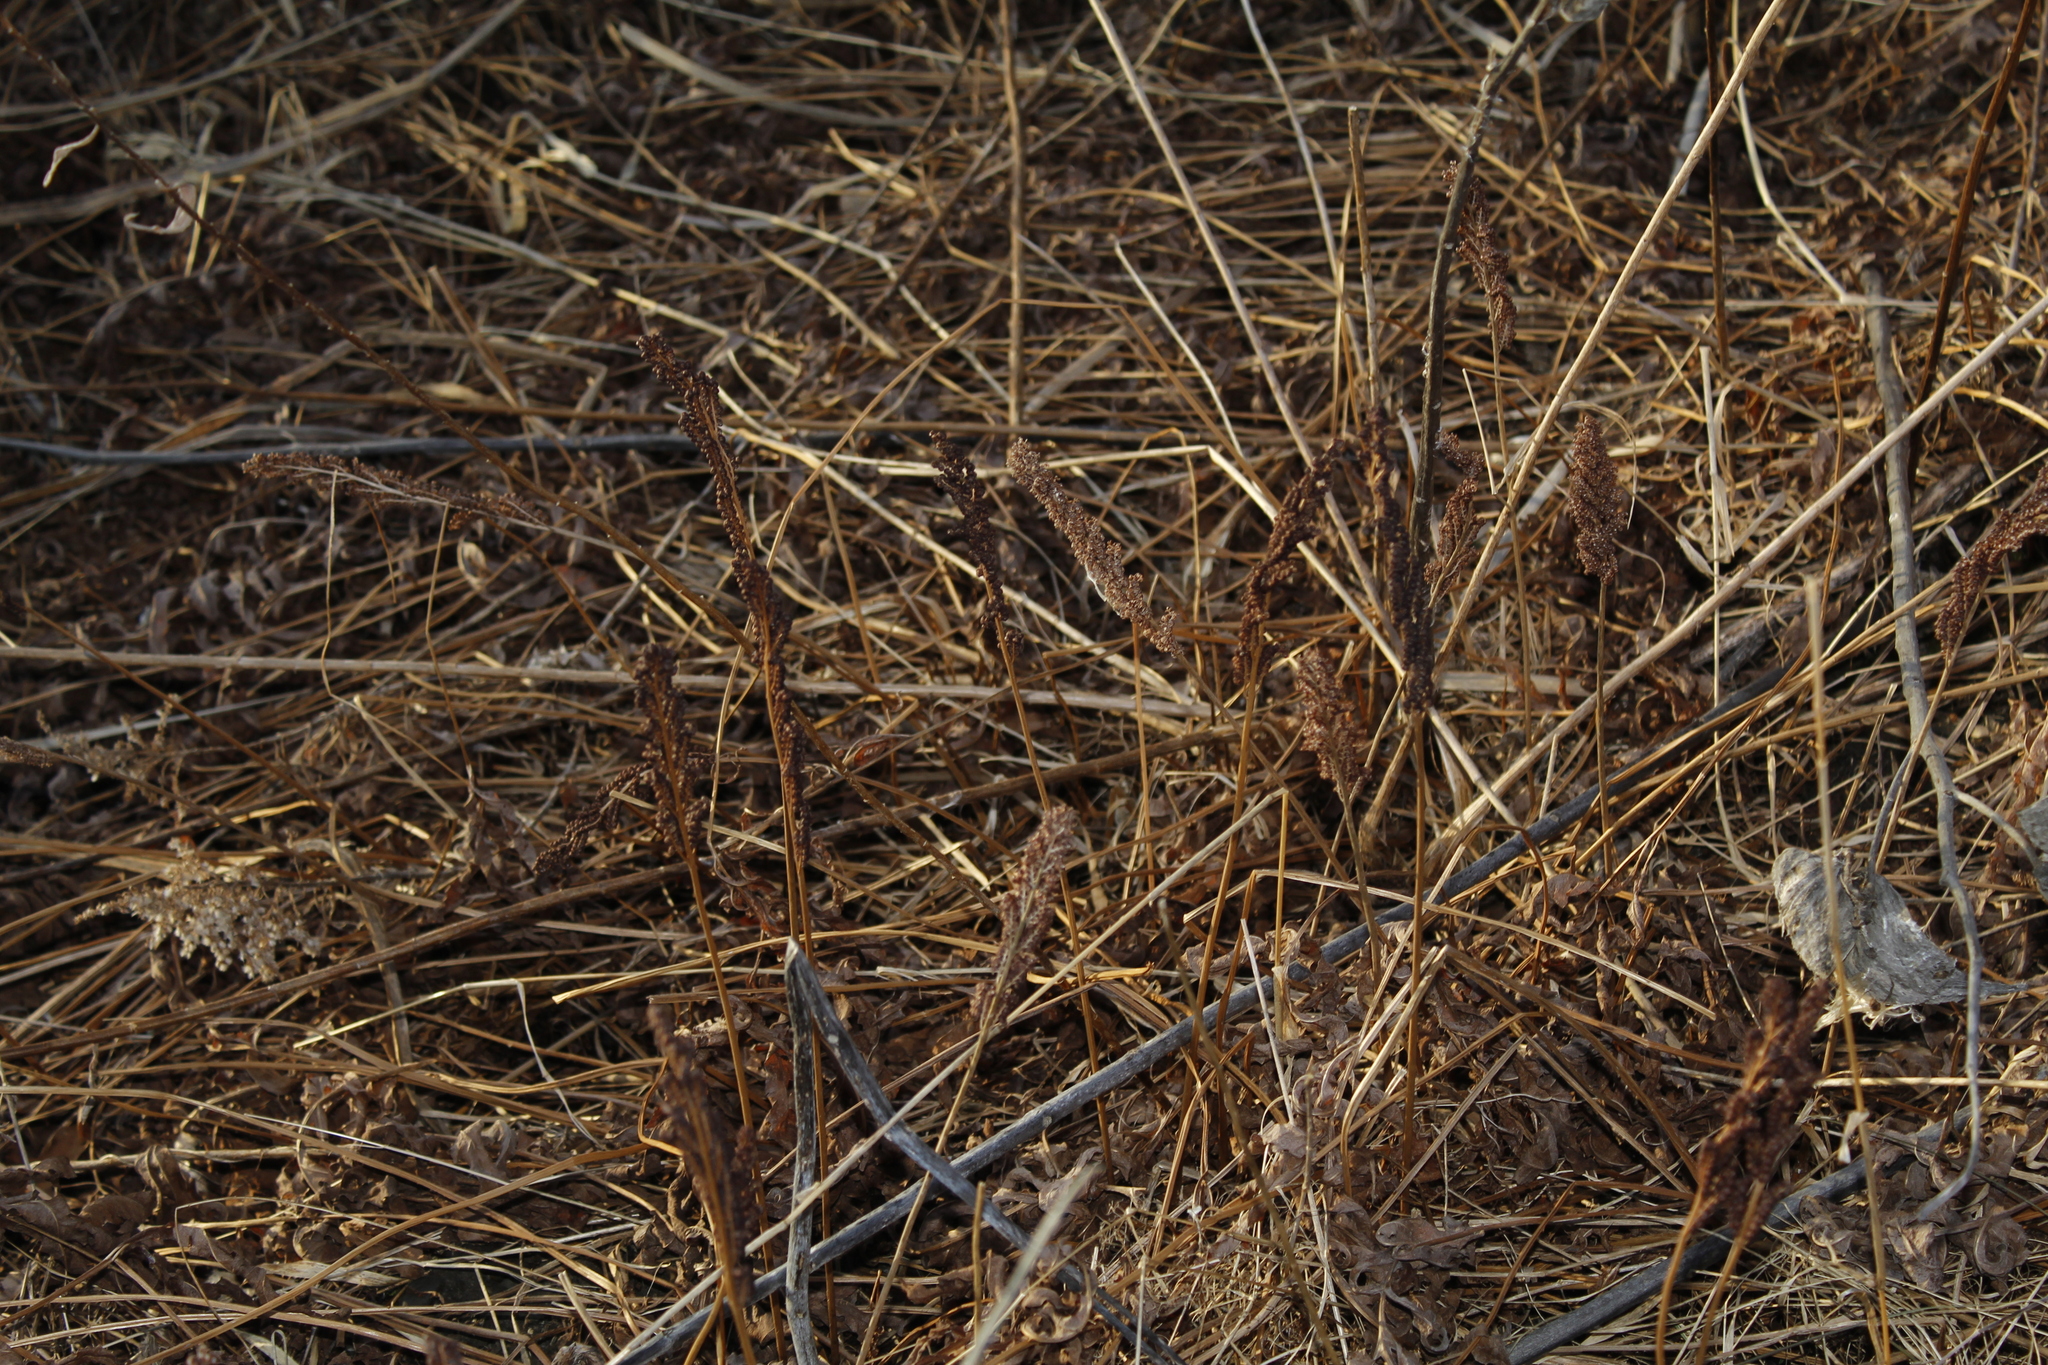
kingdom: Plantae
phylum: Tracheophyta
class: Polypodiopsida
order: Polypodiales
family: Onocleaceae
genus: Onoclea
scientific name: Onoclea sensibilis
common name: Sensitive fern
